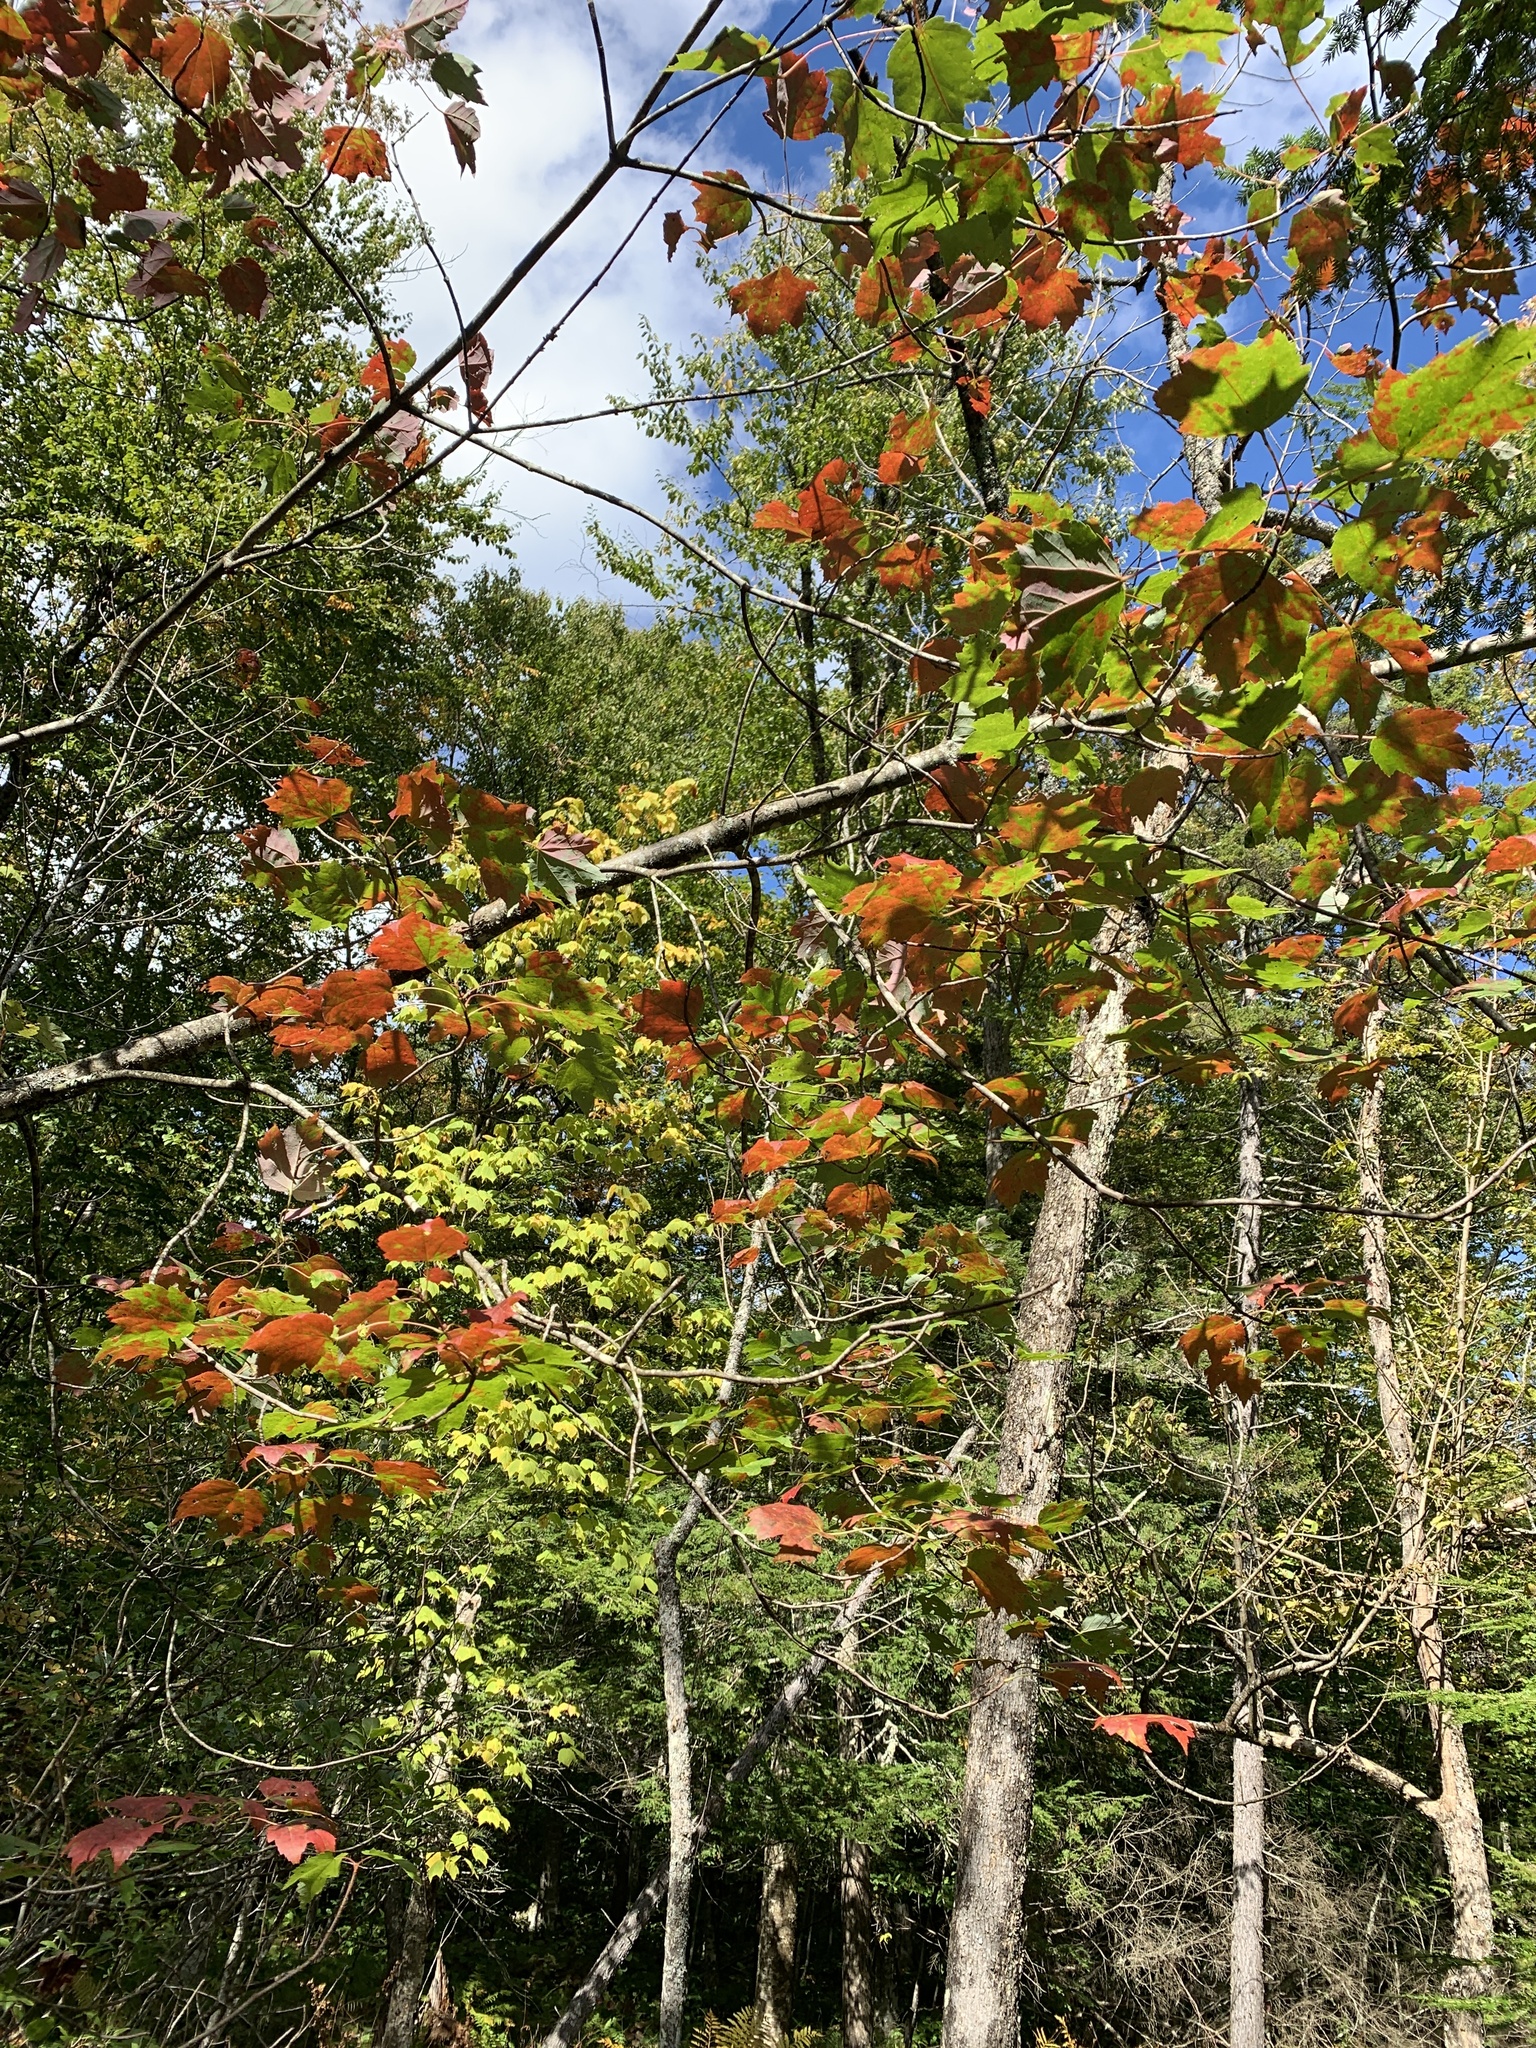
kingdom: Plantae
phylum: Tracheophyta
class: Magnoliopsida
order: Sapindales
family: Sapindaceae
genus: Acer
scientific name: Acer rubrum
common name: Red maple
